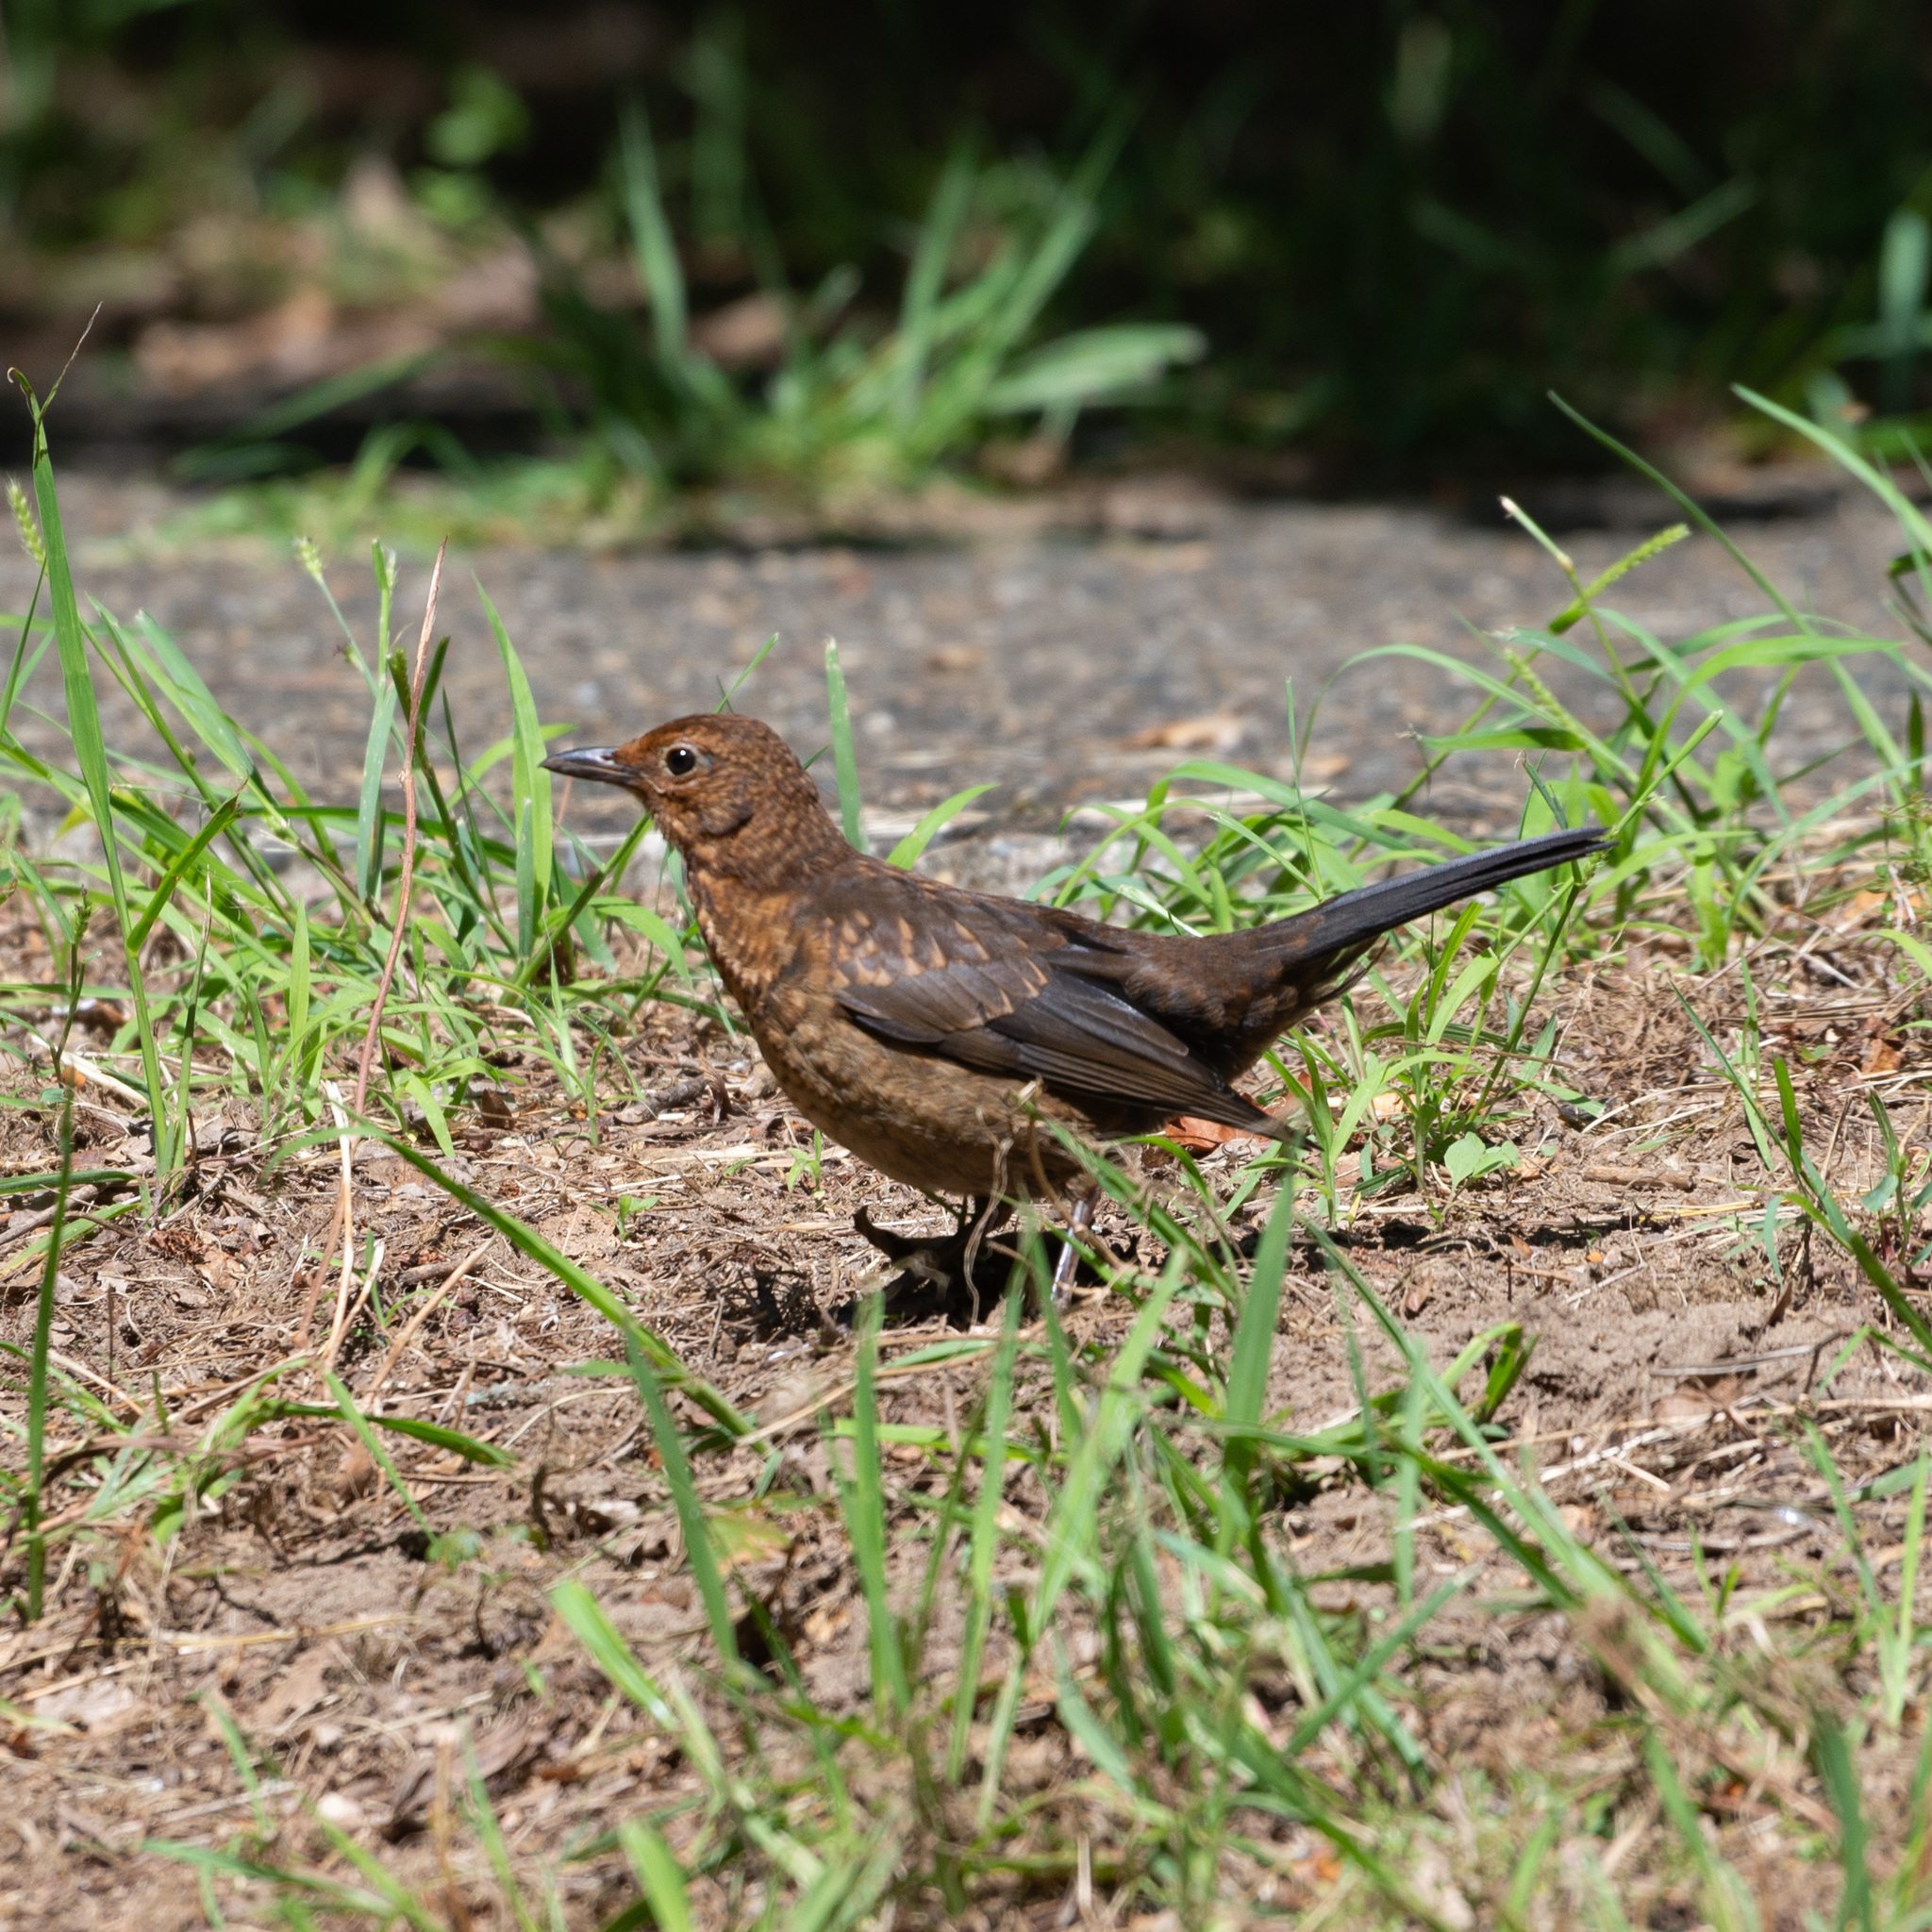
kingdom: Animalia
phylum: Chordata
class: Aves
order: Passeriformes
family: Turdidae
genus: Turdus
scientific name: Turdus merula
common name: Common blackbird
